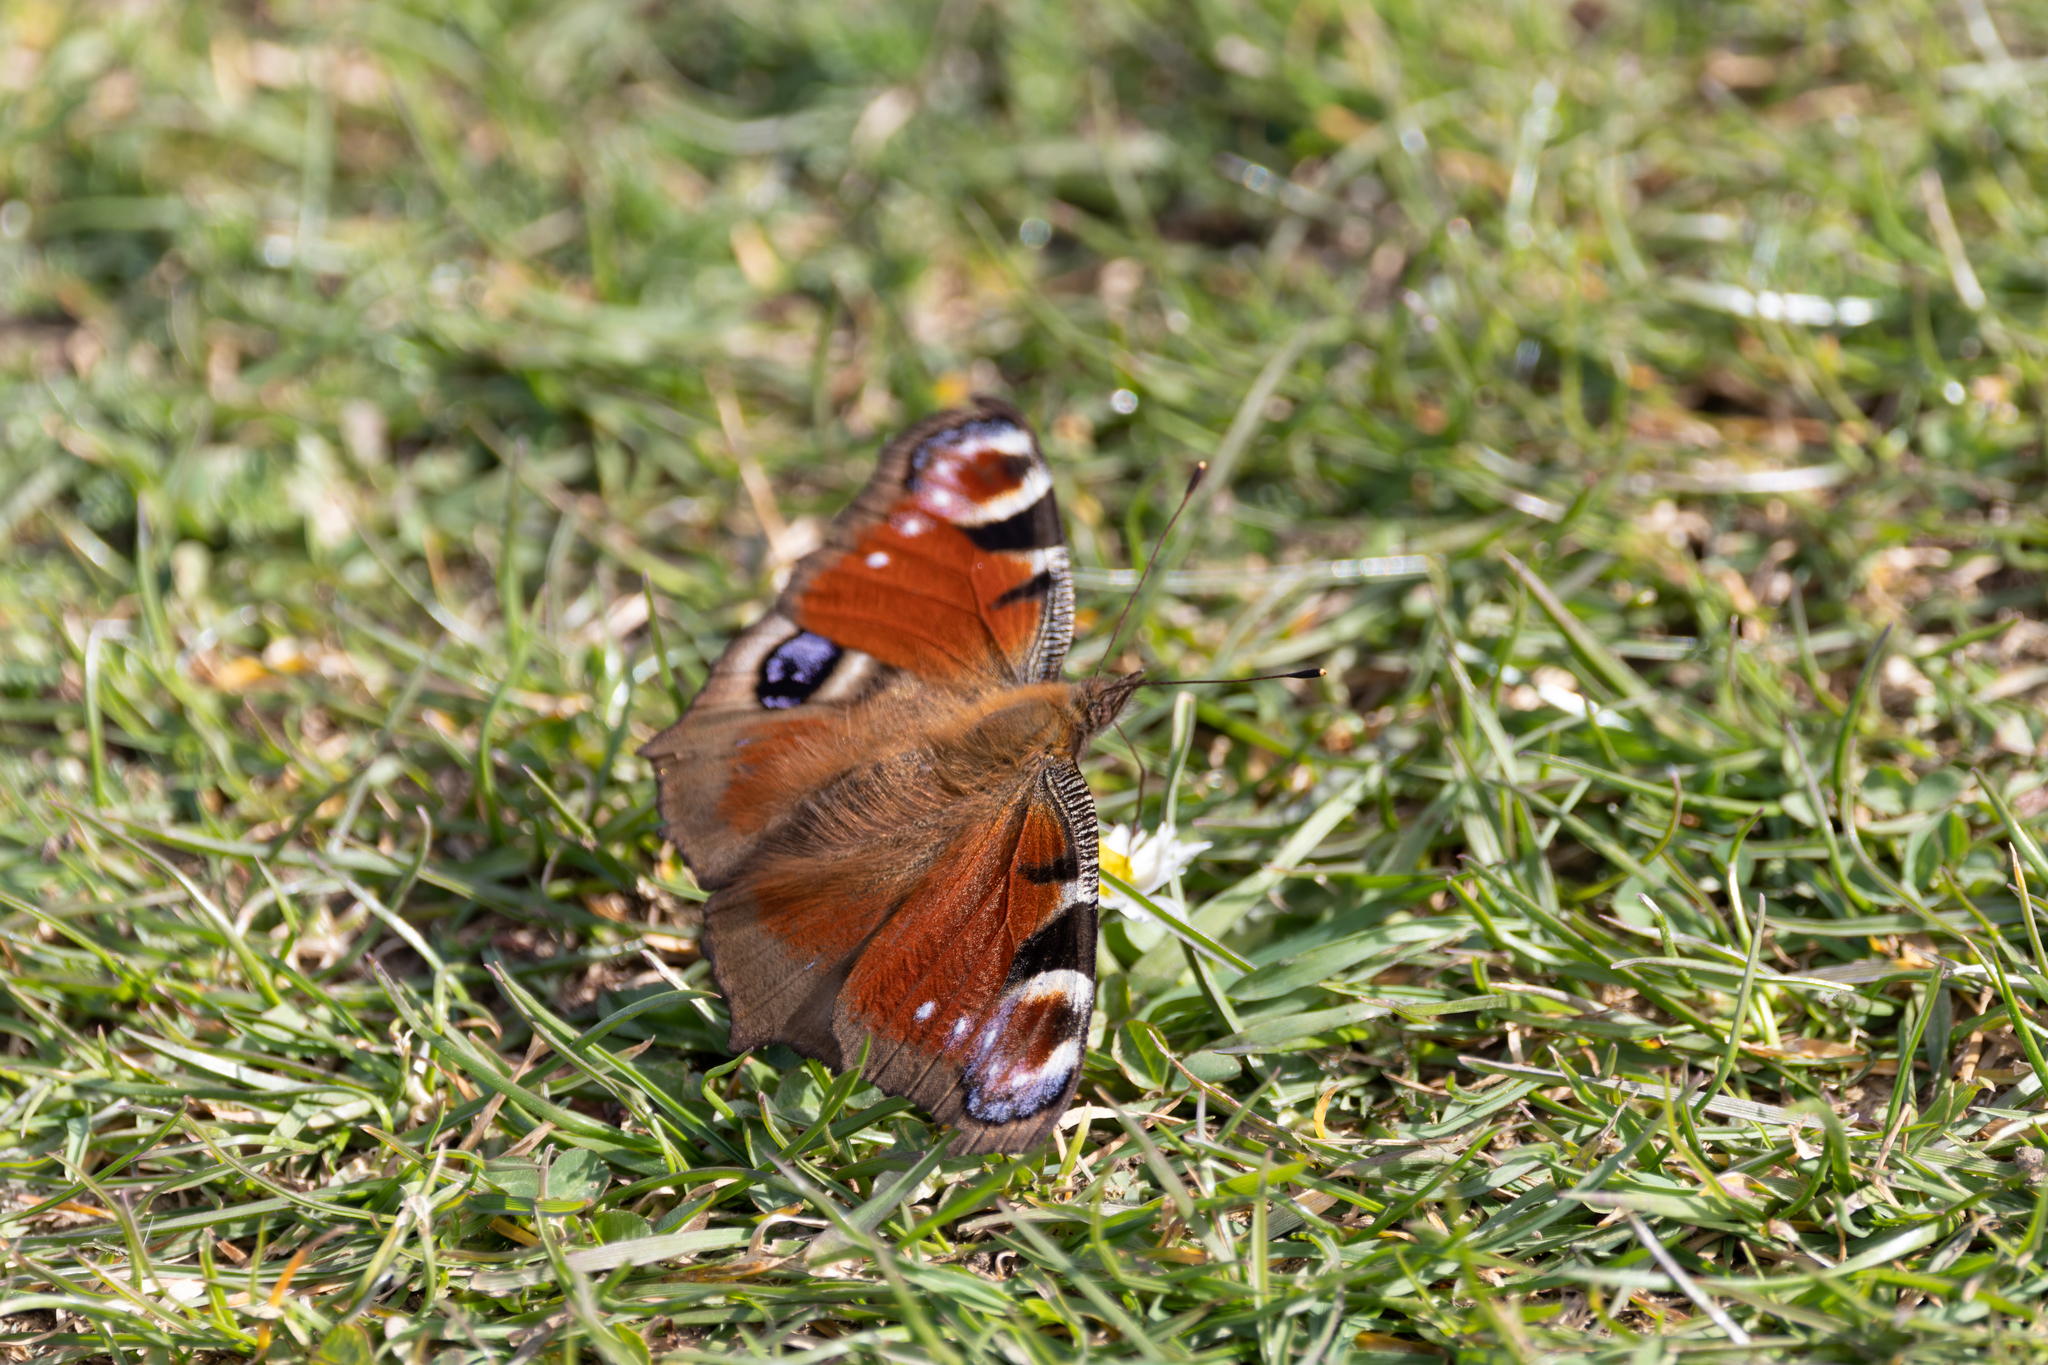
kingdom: Animalia
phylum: Arthropoda
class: Insecta
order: Lepidoptera
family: Nymphalidae
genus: Aglais
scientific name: Aglais io
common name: Peacock
